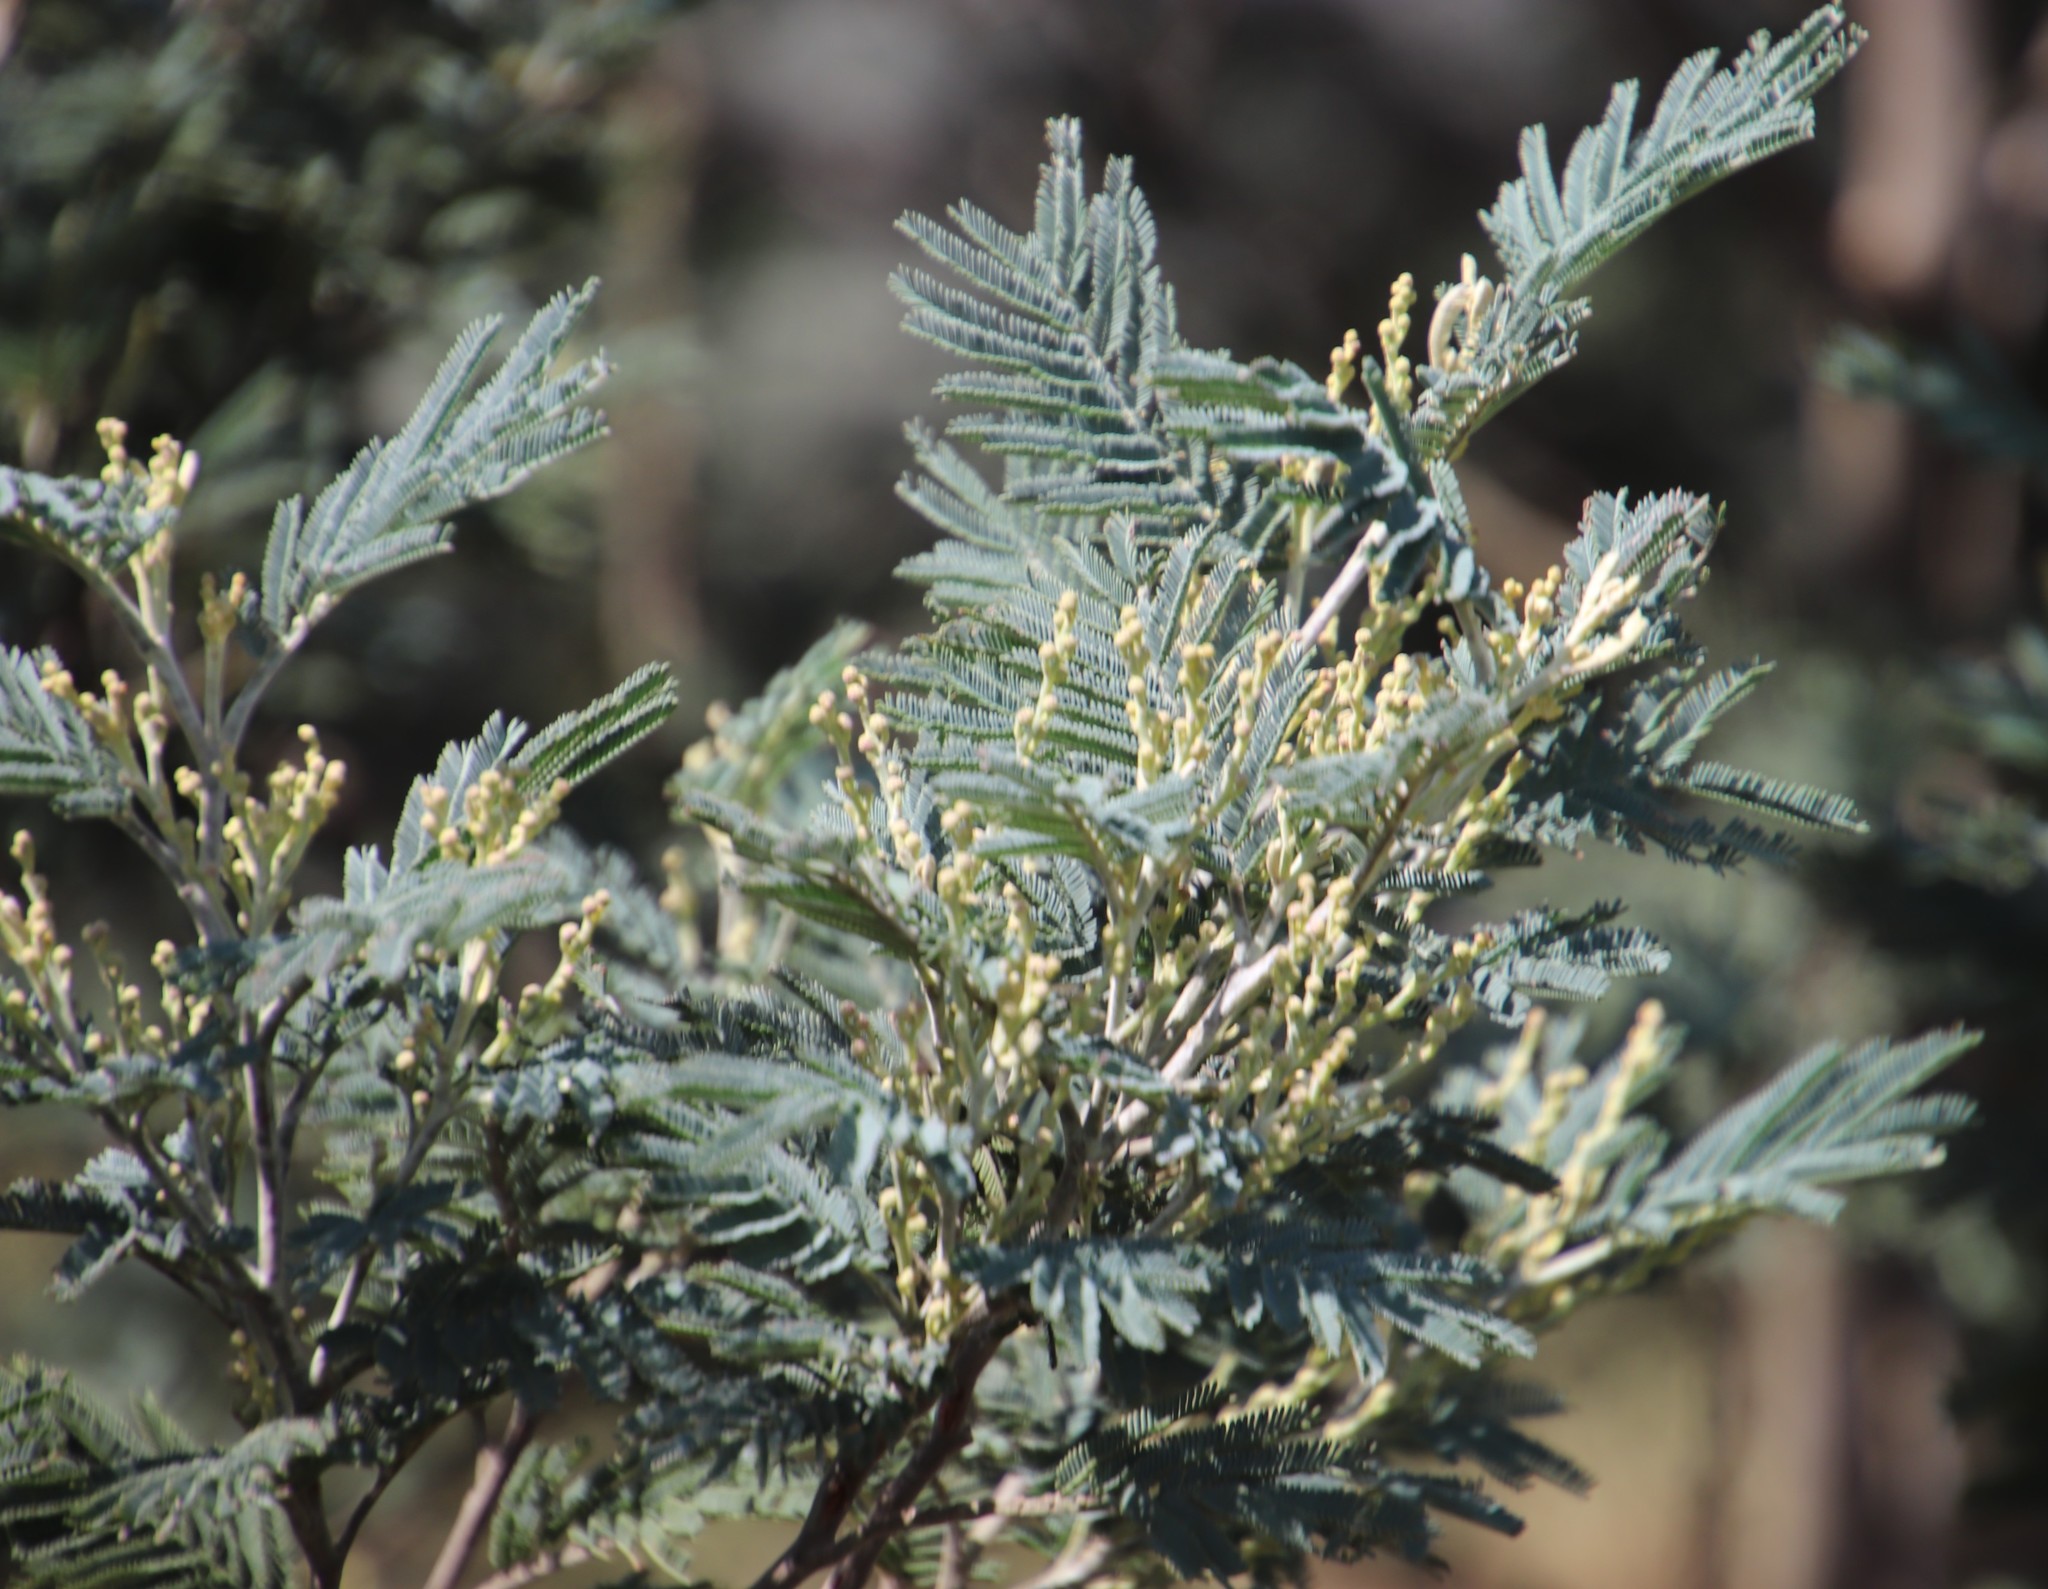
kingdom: Plantae
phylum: Tracheophyta
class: Magnoliopsida
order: Fabales
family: Fabaceae
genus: Acacia
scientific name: Acacia dealbata
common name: Silver wattle
